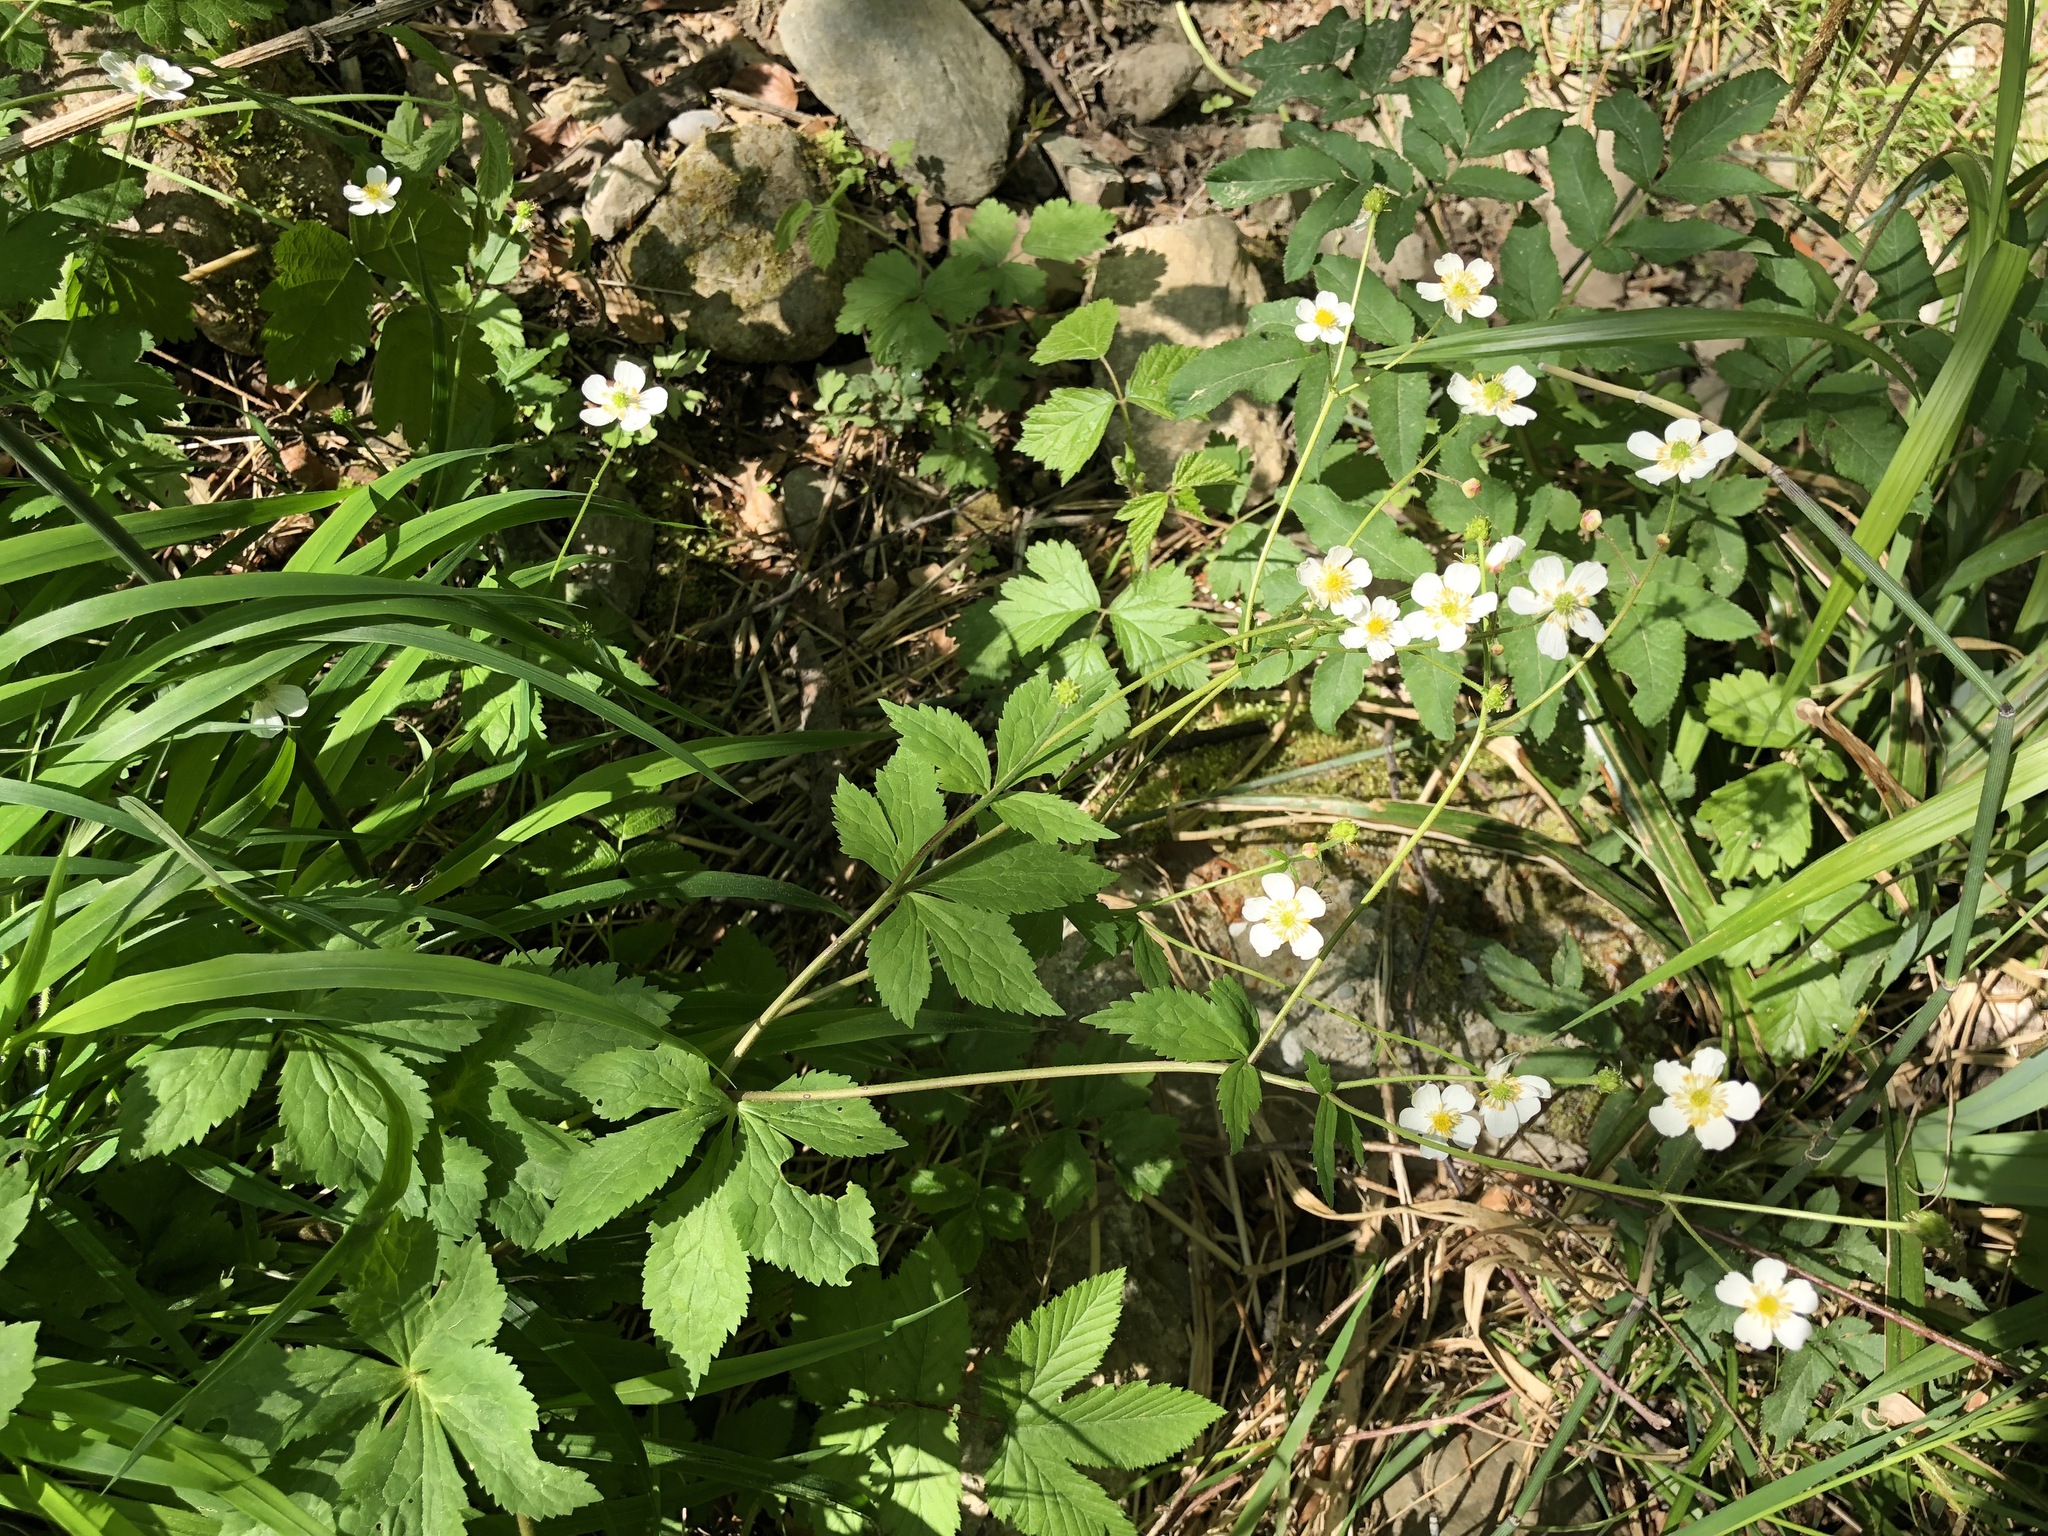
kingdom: Plantae
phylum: Tracheophyta
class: Magnoliopsida
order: Ranunculales
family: Ranunculaceae
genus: Ranunculus
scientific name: Ranunculus aconitifolius
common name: Aconite-leaved buttercup
